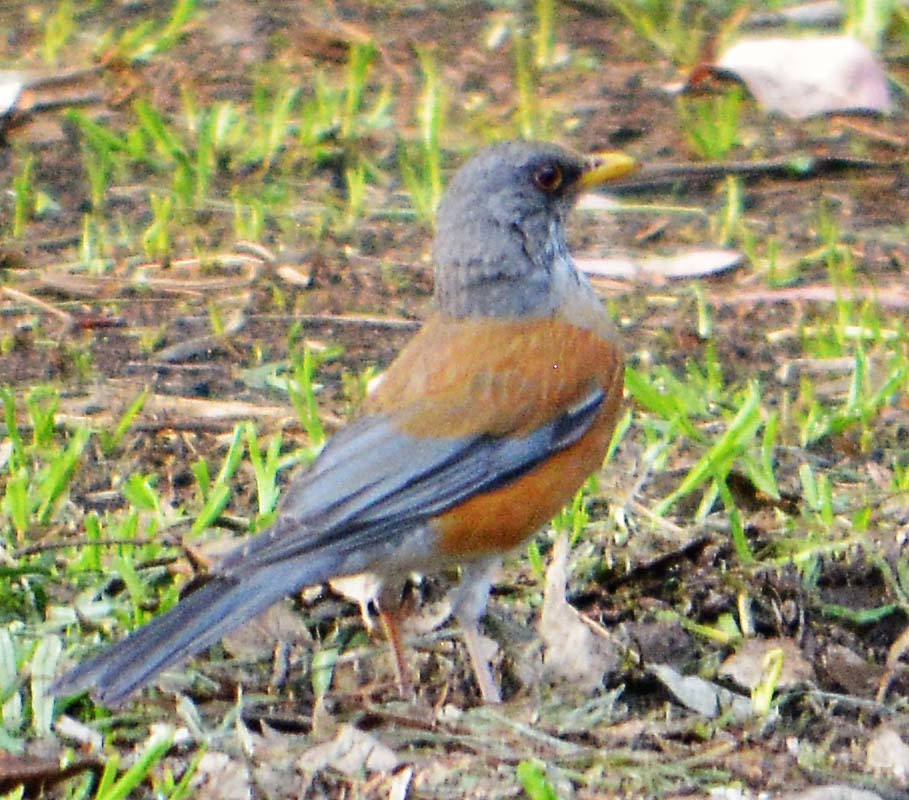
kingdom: Animalia
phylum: Chordata
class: Aves
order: Passeriformes
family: Turdidae
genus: Turdus
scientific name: Turdus rufopalliatus
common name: Rufous-backed robin
